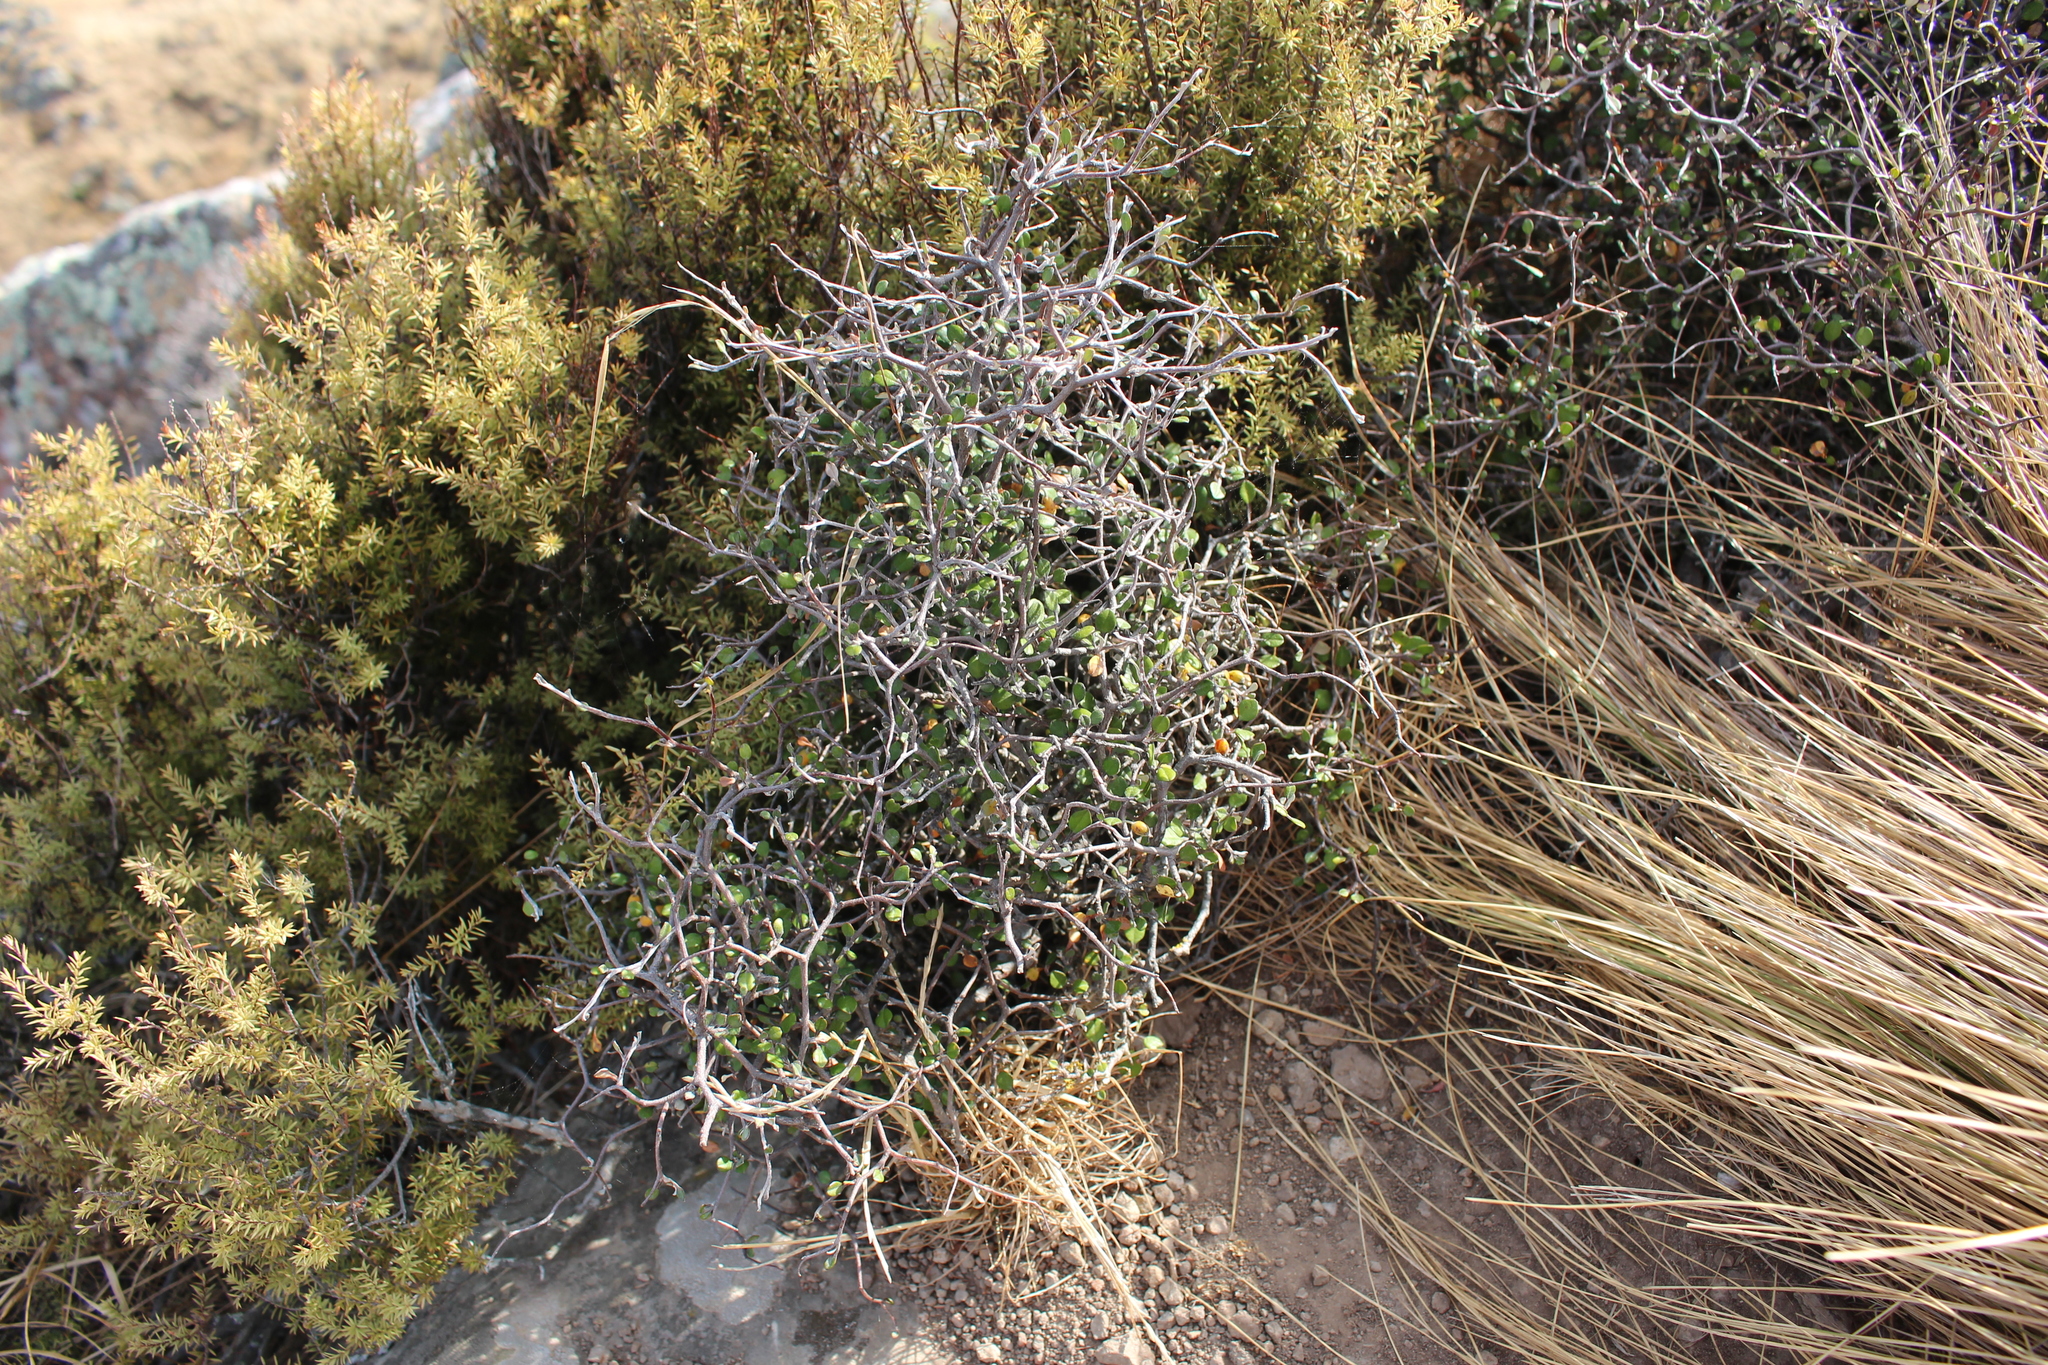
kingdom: Plantae
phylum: Tracheophyta
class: Magnoliopsida
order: Asterales
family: Argophyllaceae
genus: Corokia
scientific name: Corokia cotoneaster
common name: Wire nettingbush
